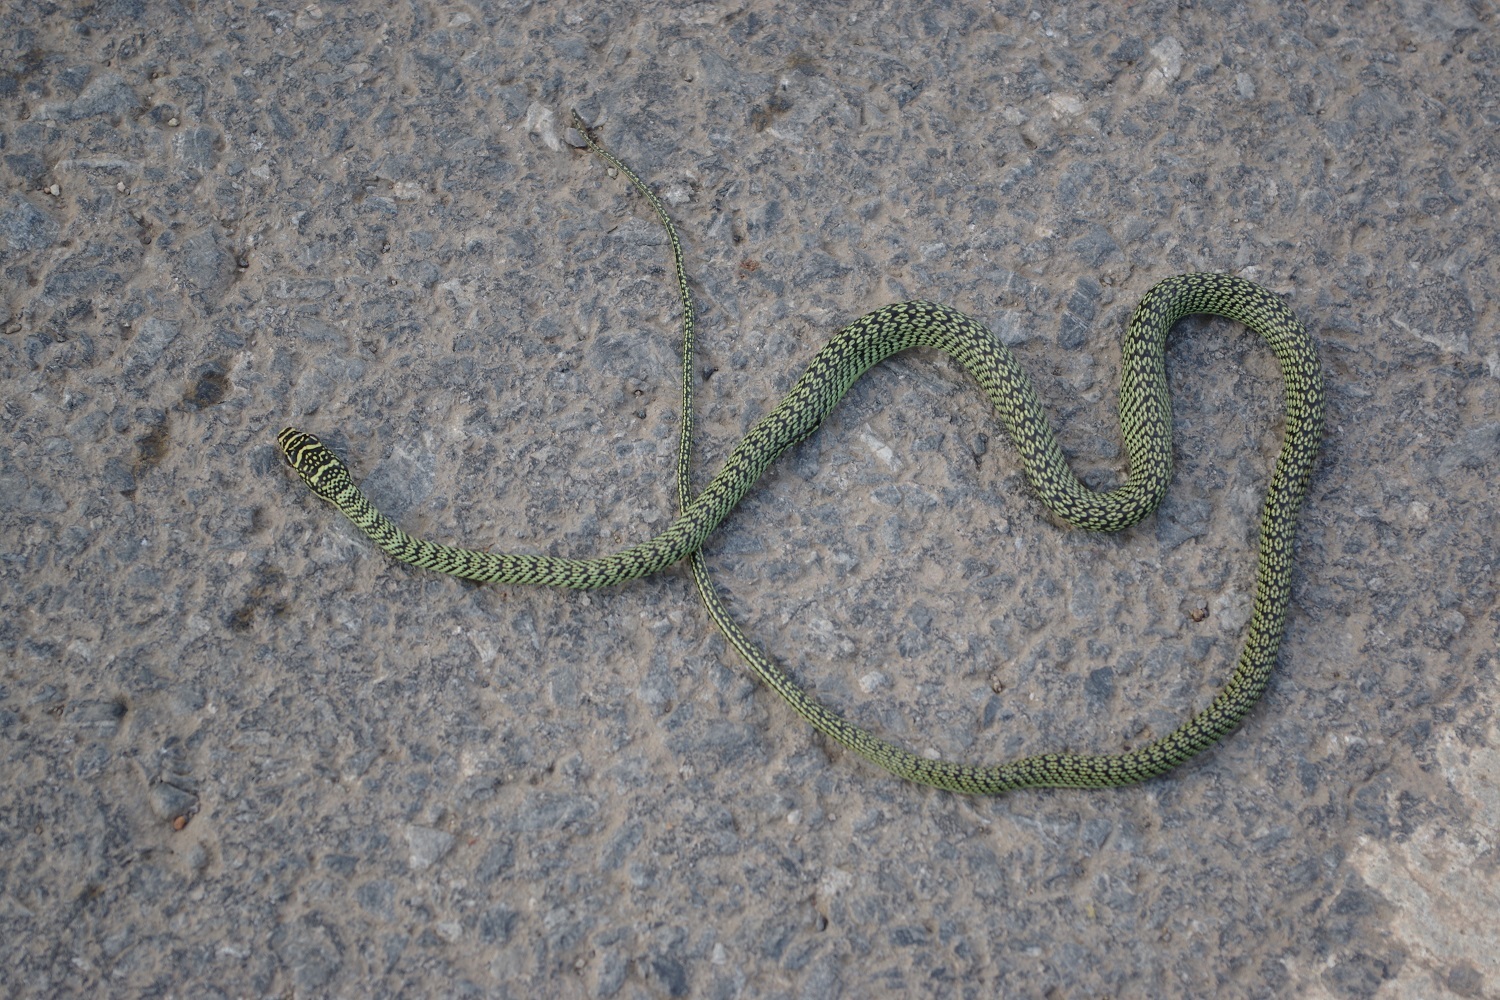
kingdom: Animalia
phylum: Chordata
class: Squamata
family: Colubridae
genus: Chrysopelea
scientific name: Chrysopelea ornata
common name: Golden flying snake
